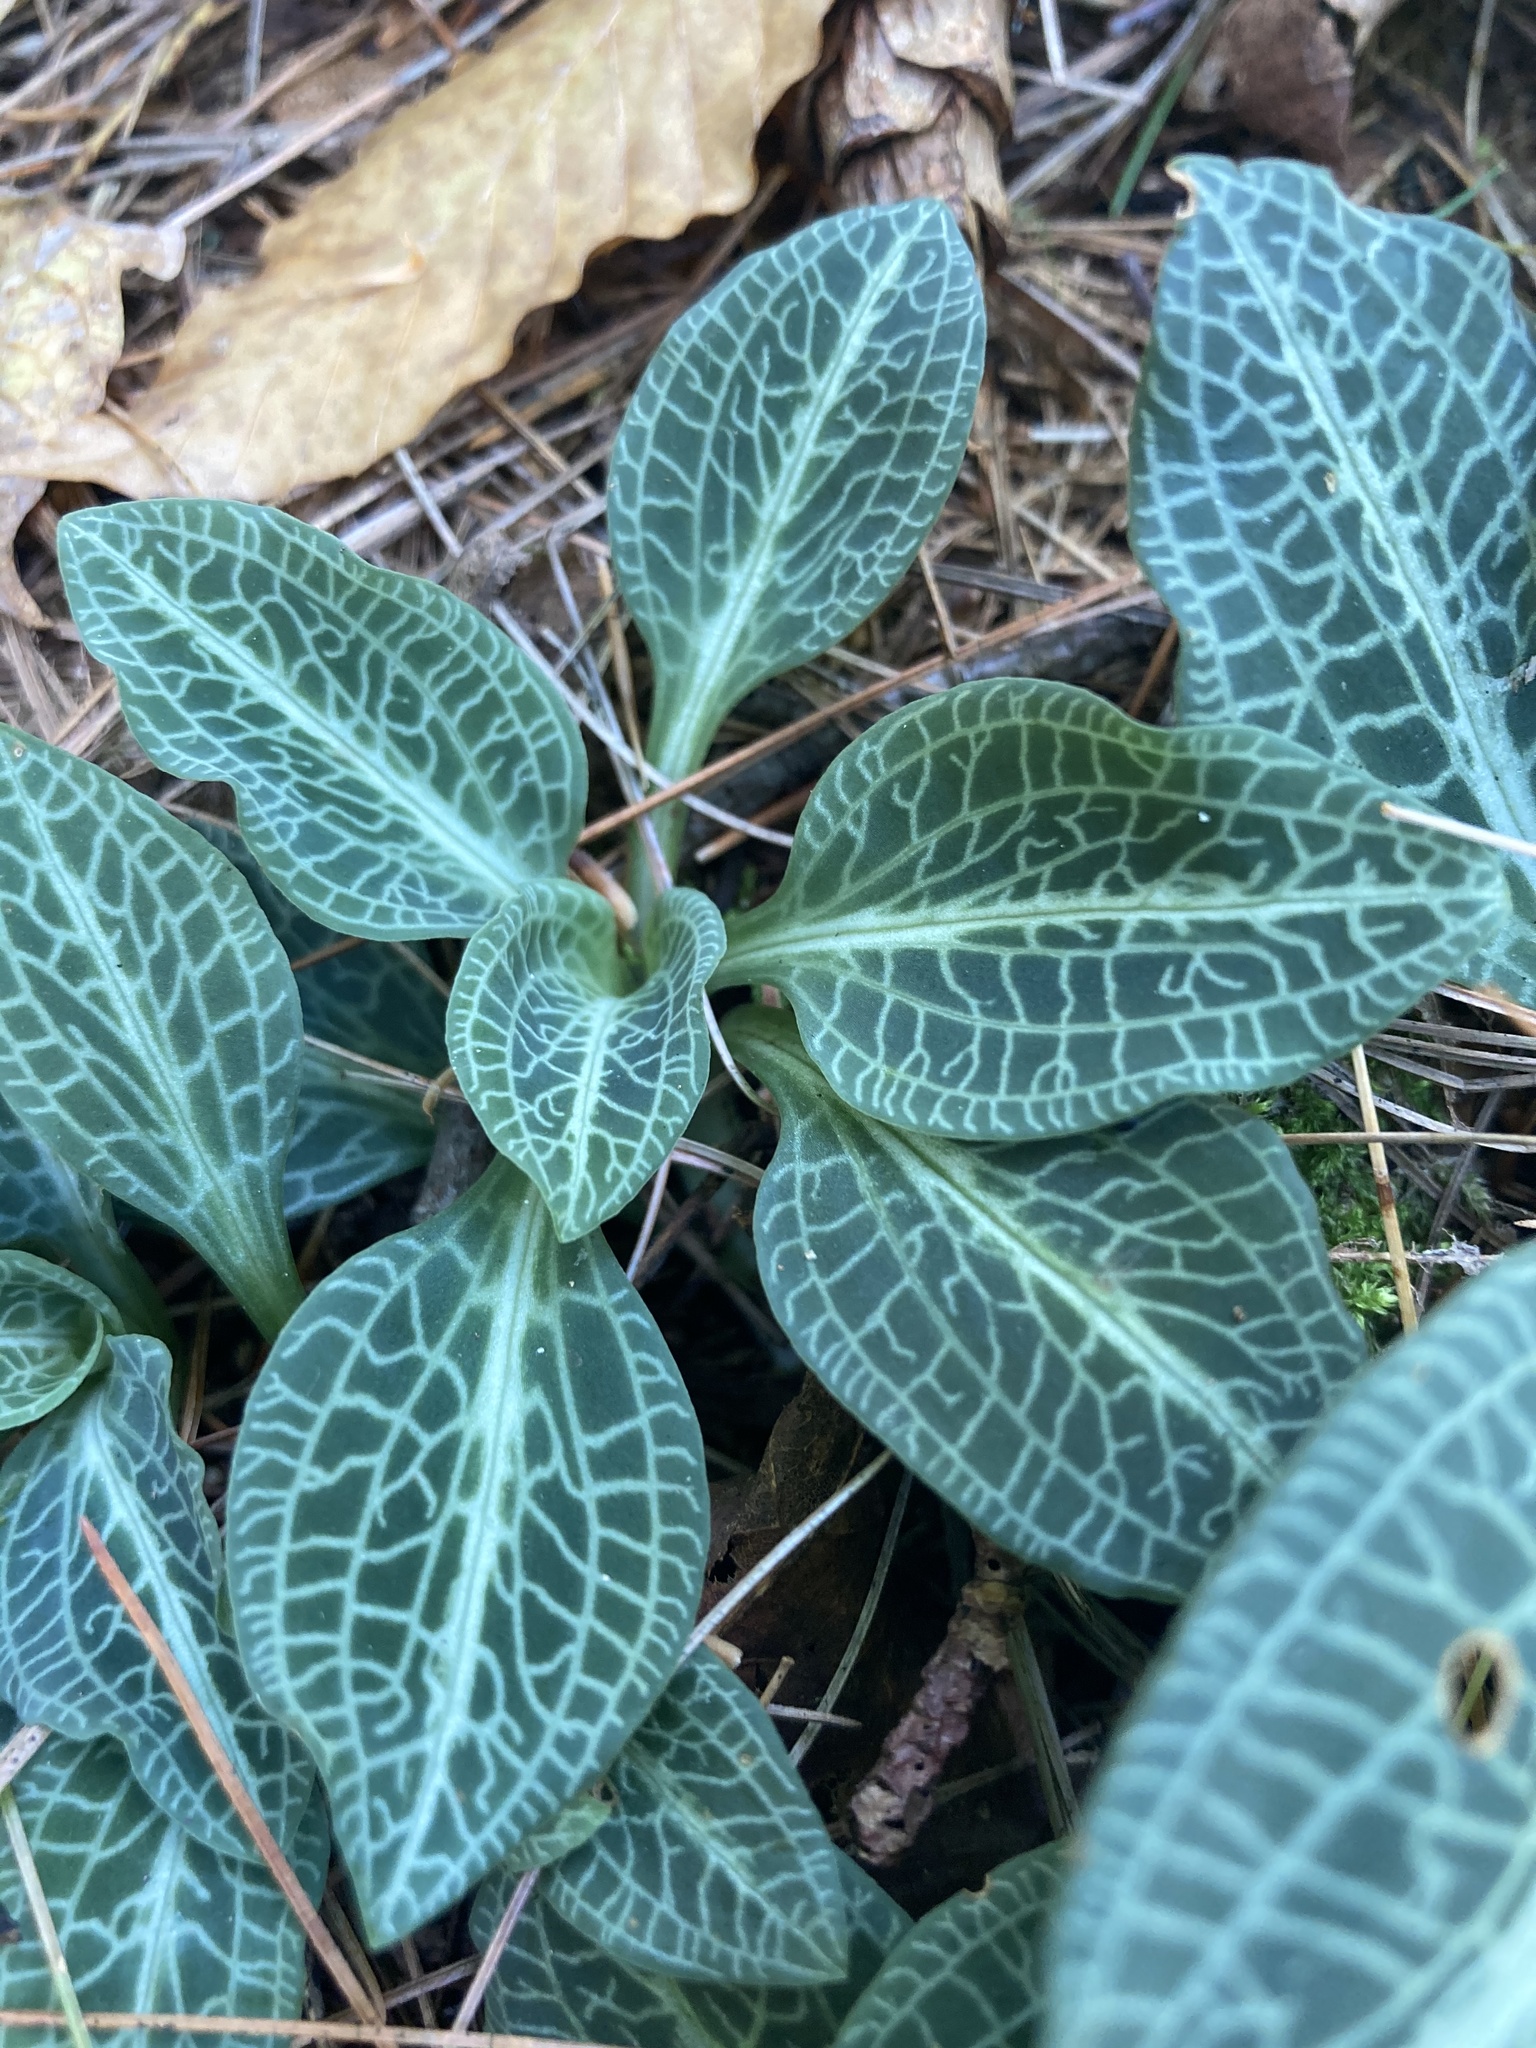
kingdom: Plantae
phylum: Tracheophyta
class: Liliopsida
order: Asparagales
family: Orchidaceae
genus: Goodyera
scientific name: Goodyera pubescens
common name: Downy rattlesnake-plantain
